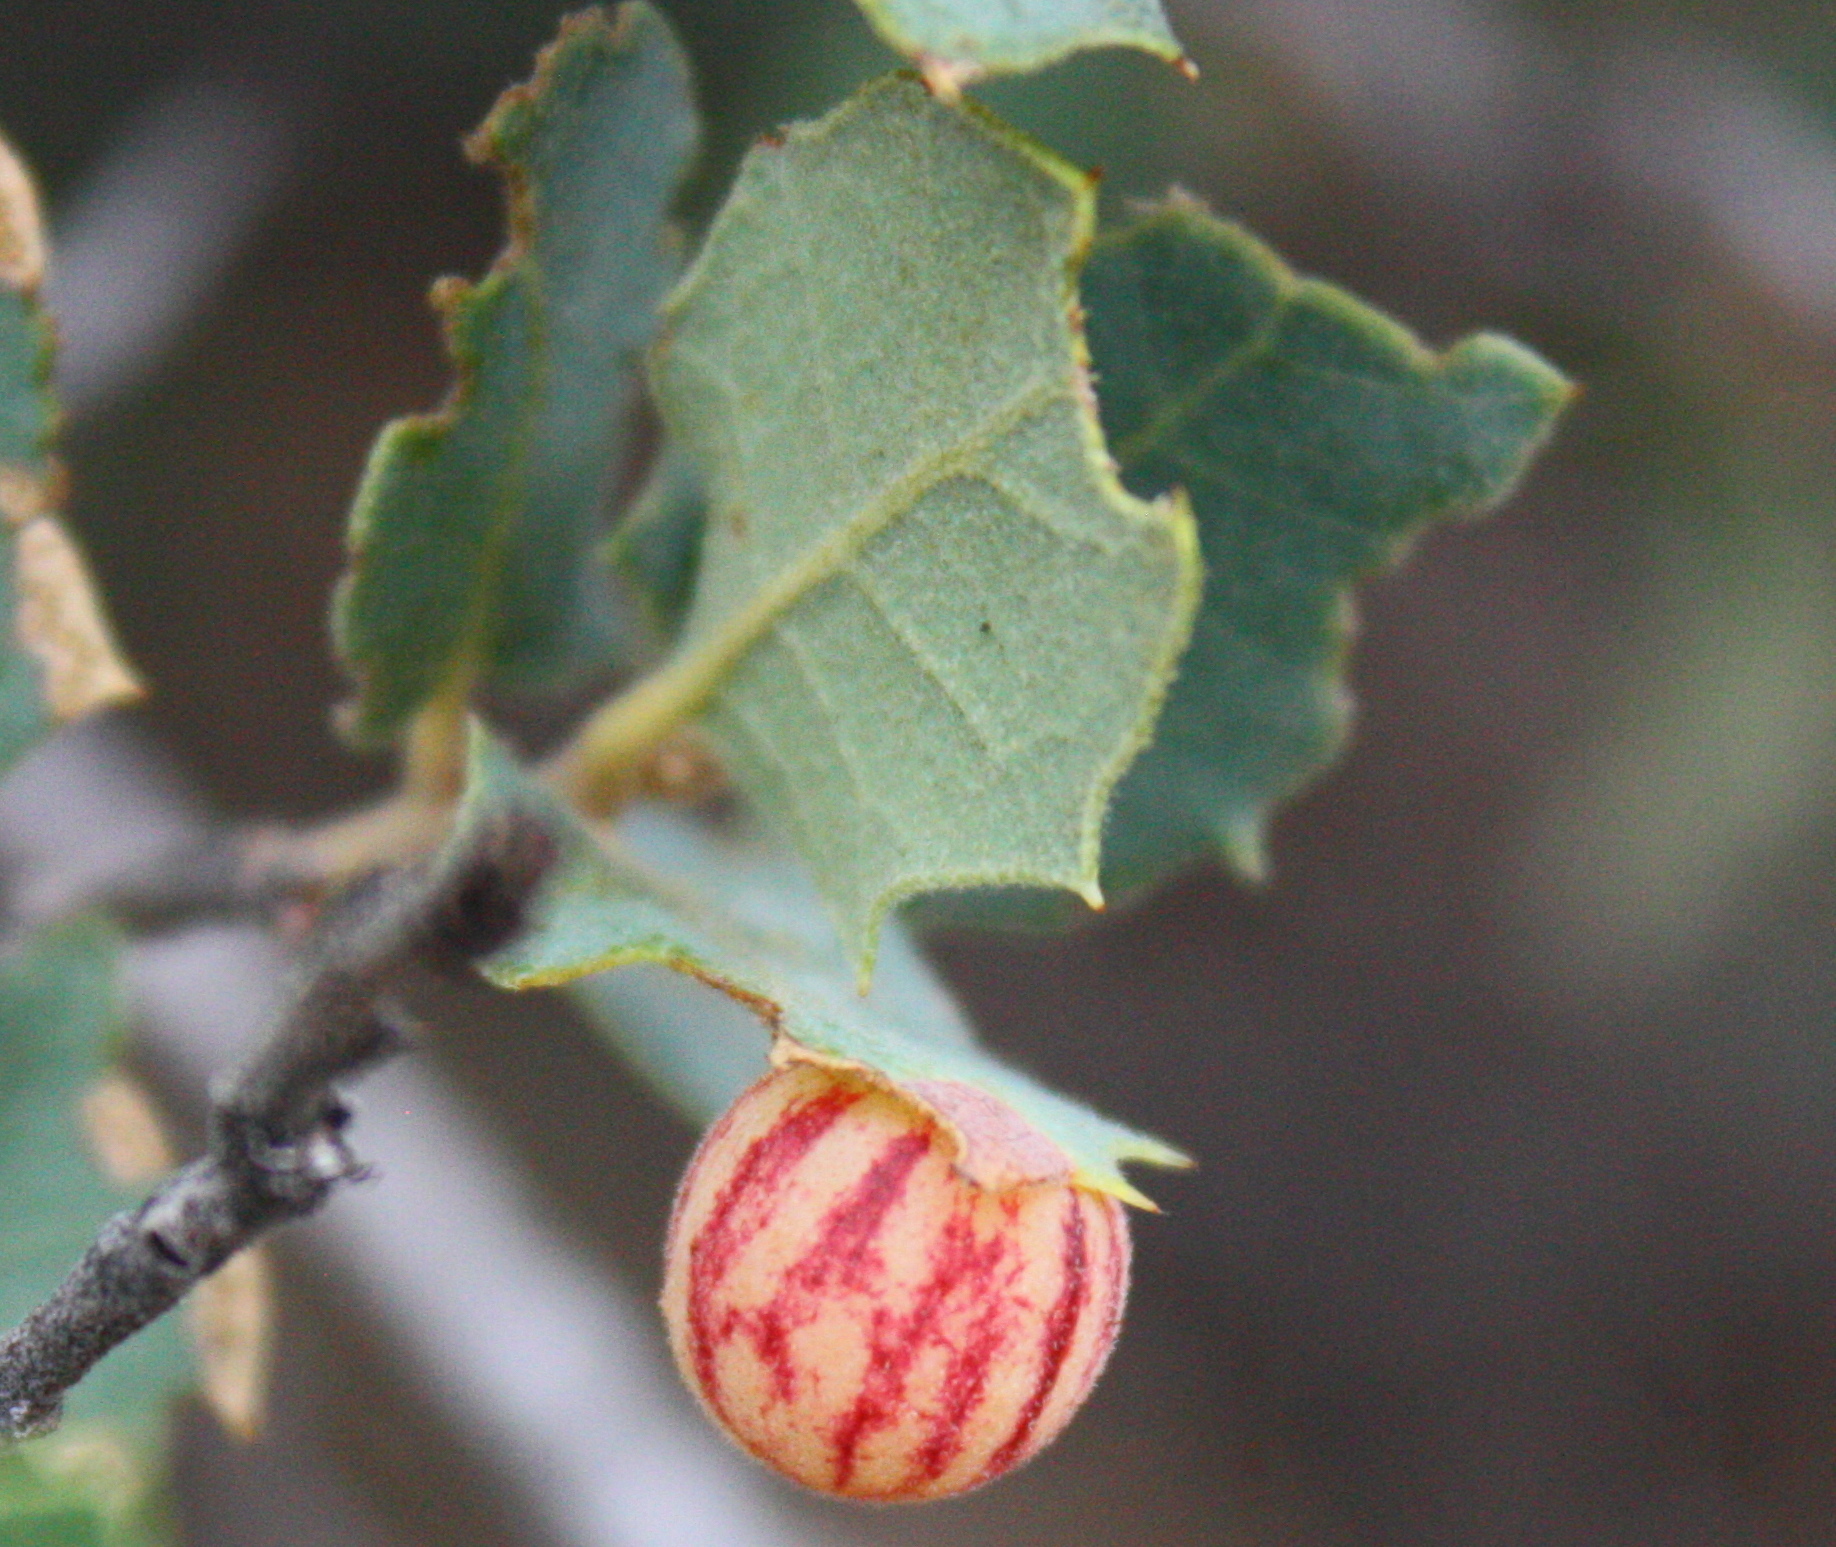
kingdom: Animalia
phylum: Arthropoda
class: Insecta
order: Hymenoptera
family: Cynipidae
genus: Atrusca
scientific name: Atrusca
